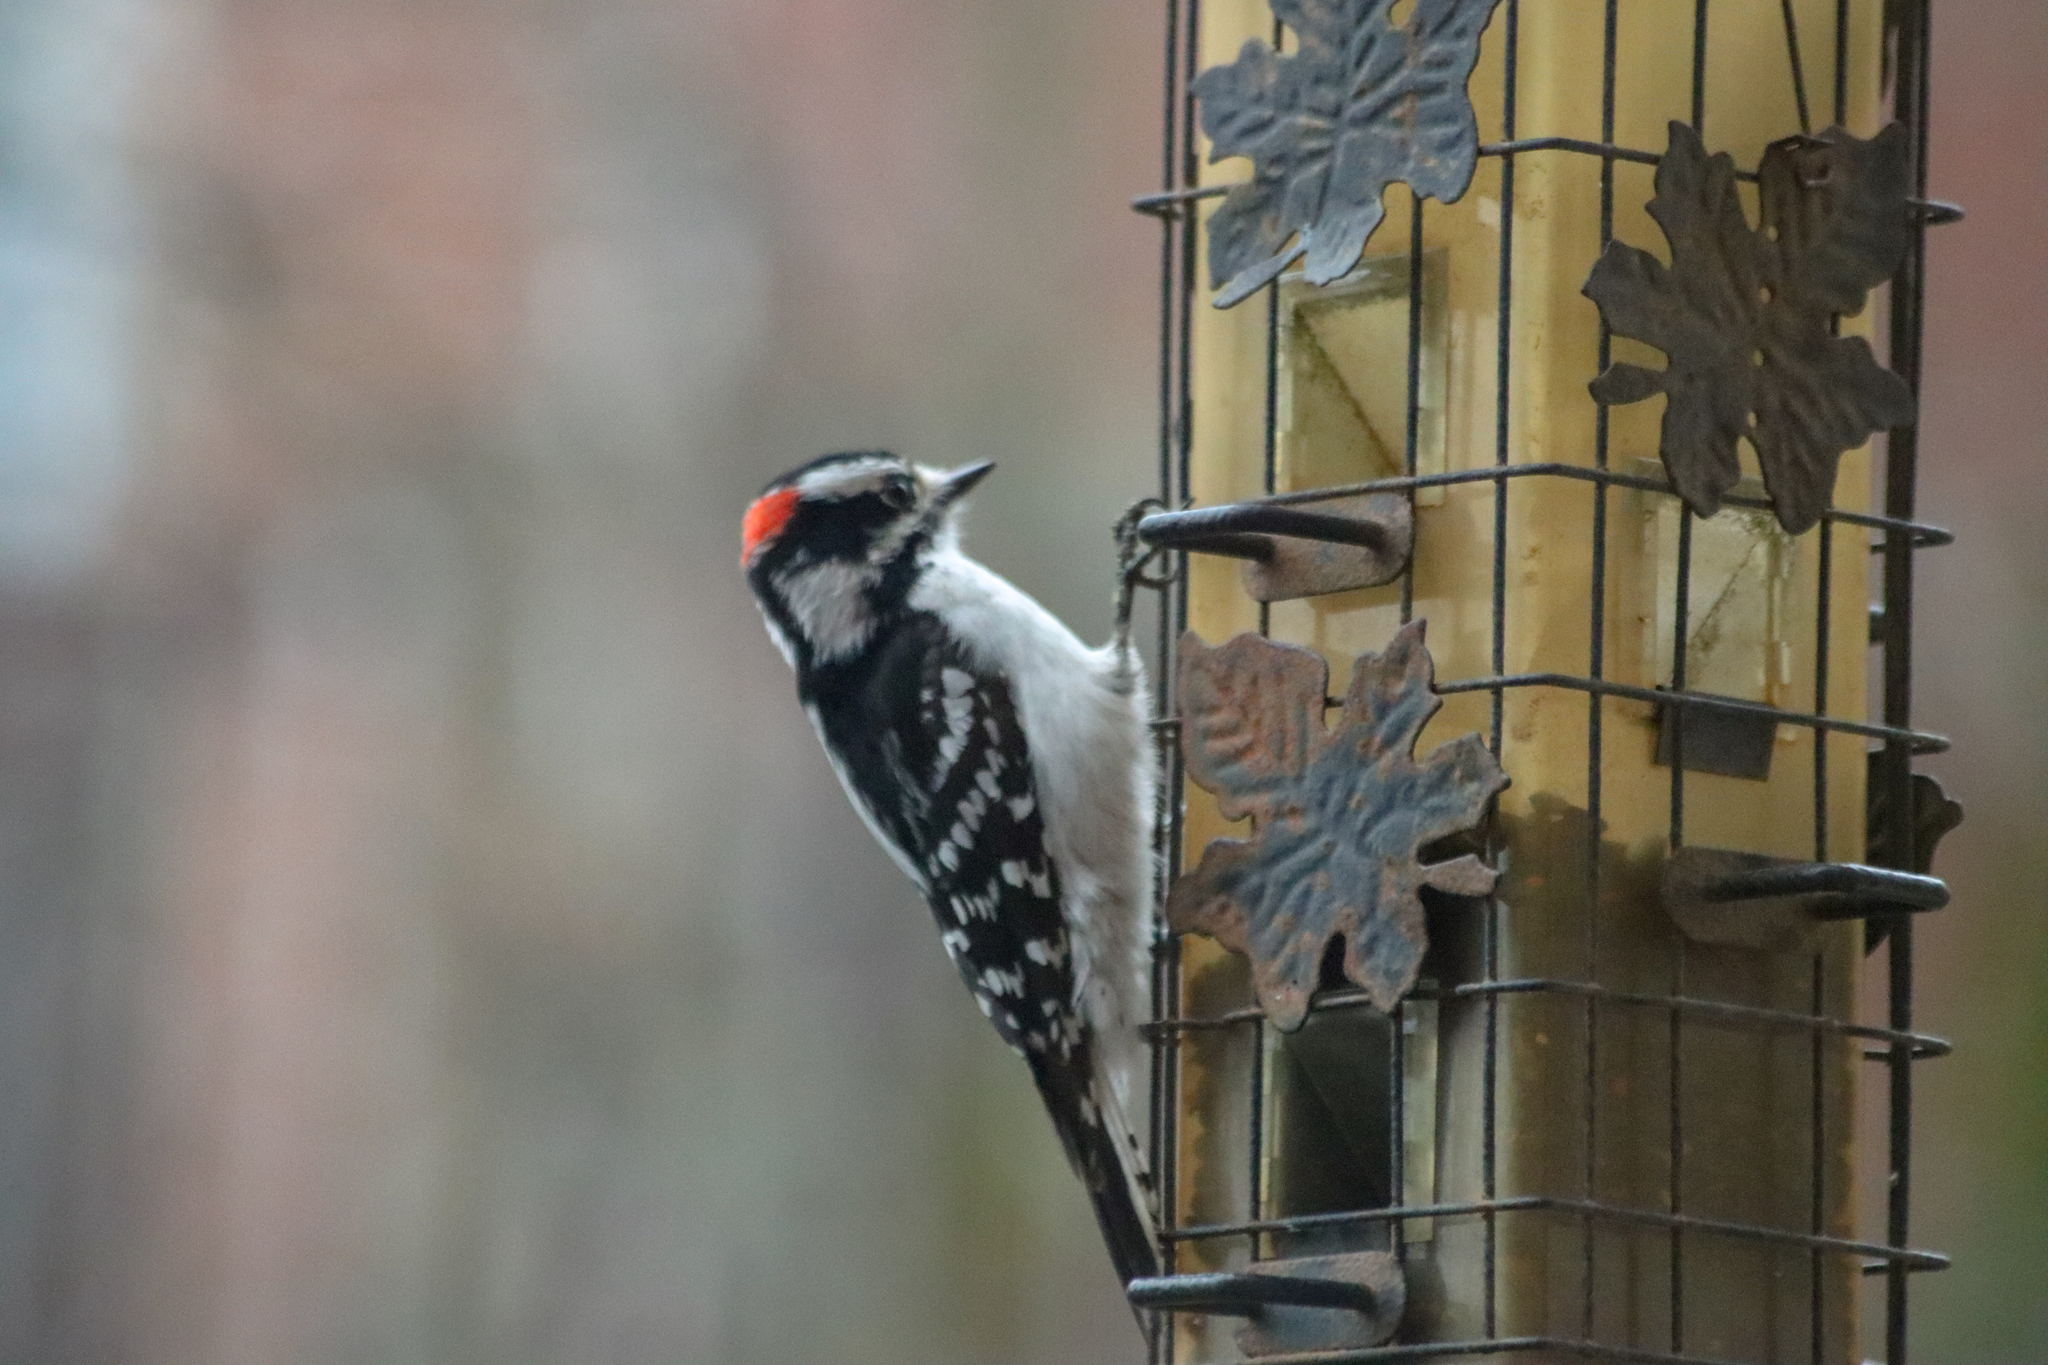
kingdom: Animalia
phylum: Chordata
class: Aves
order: Piciformes
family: Picidae
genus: Dryobates
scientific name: Dryobates pubescens
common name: Downy woodpecker
